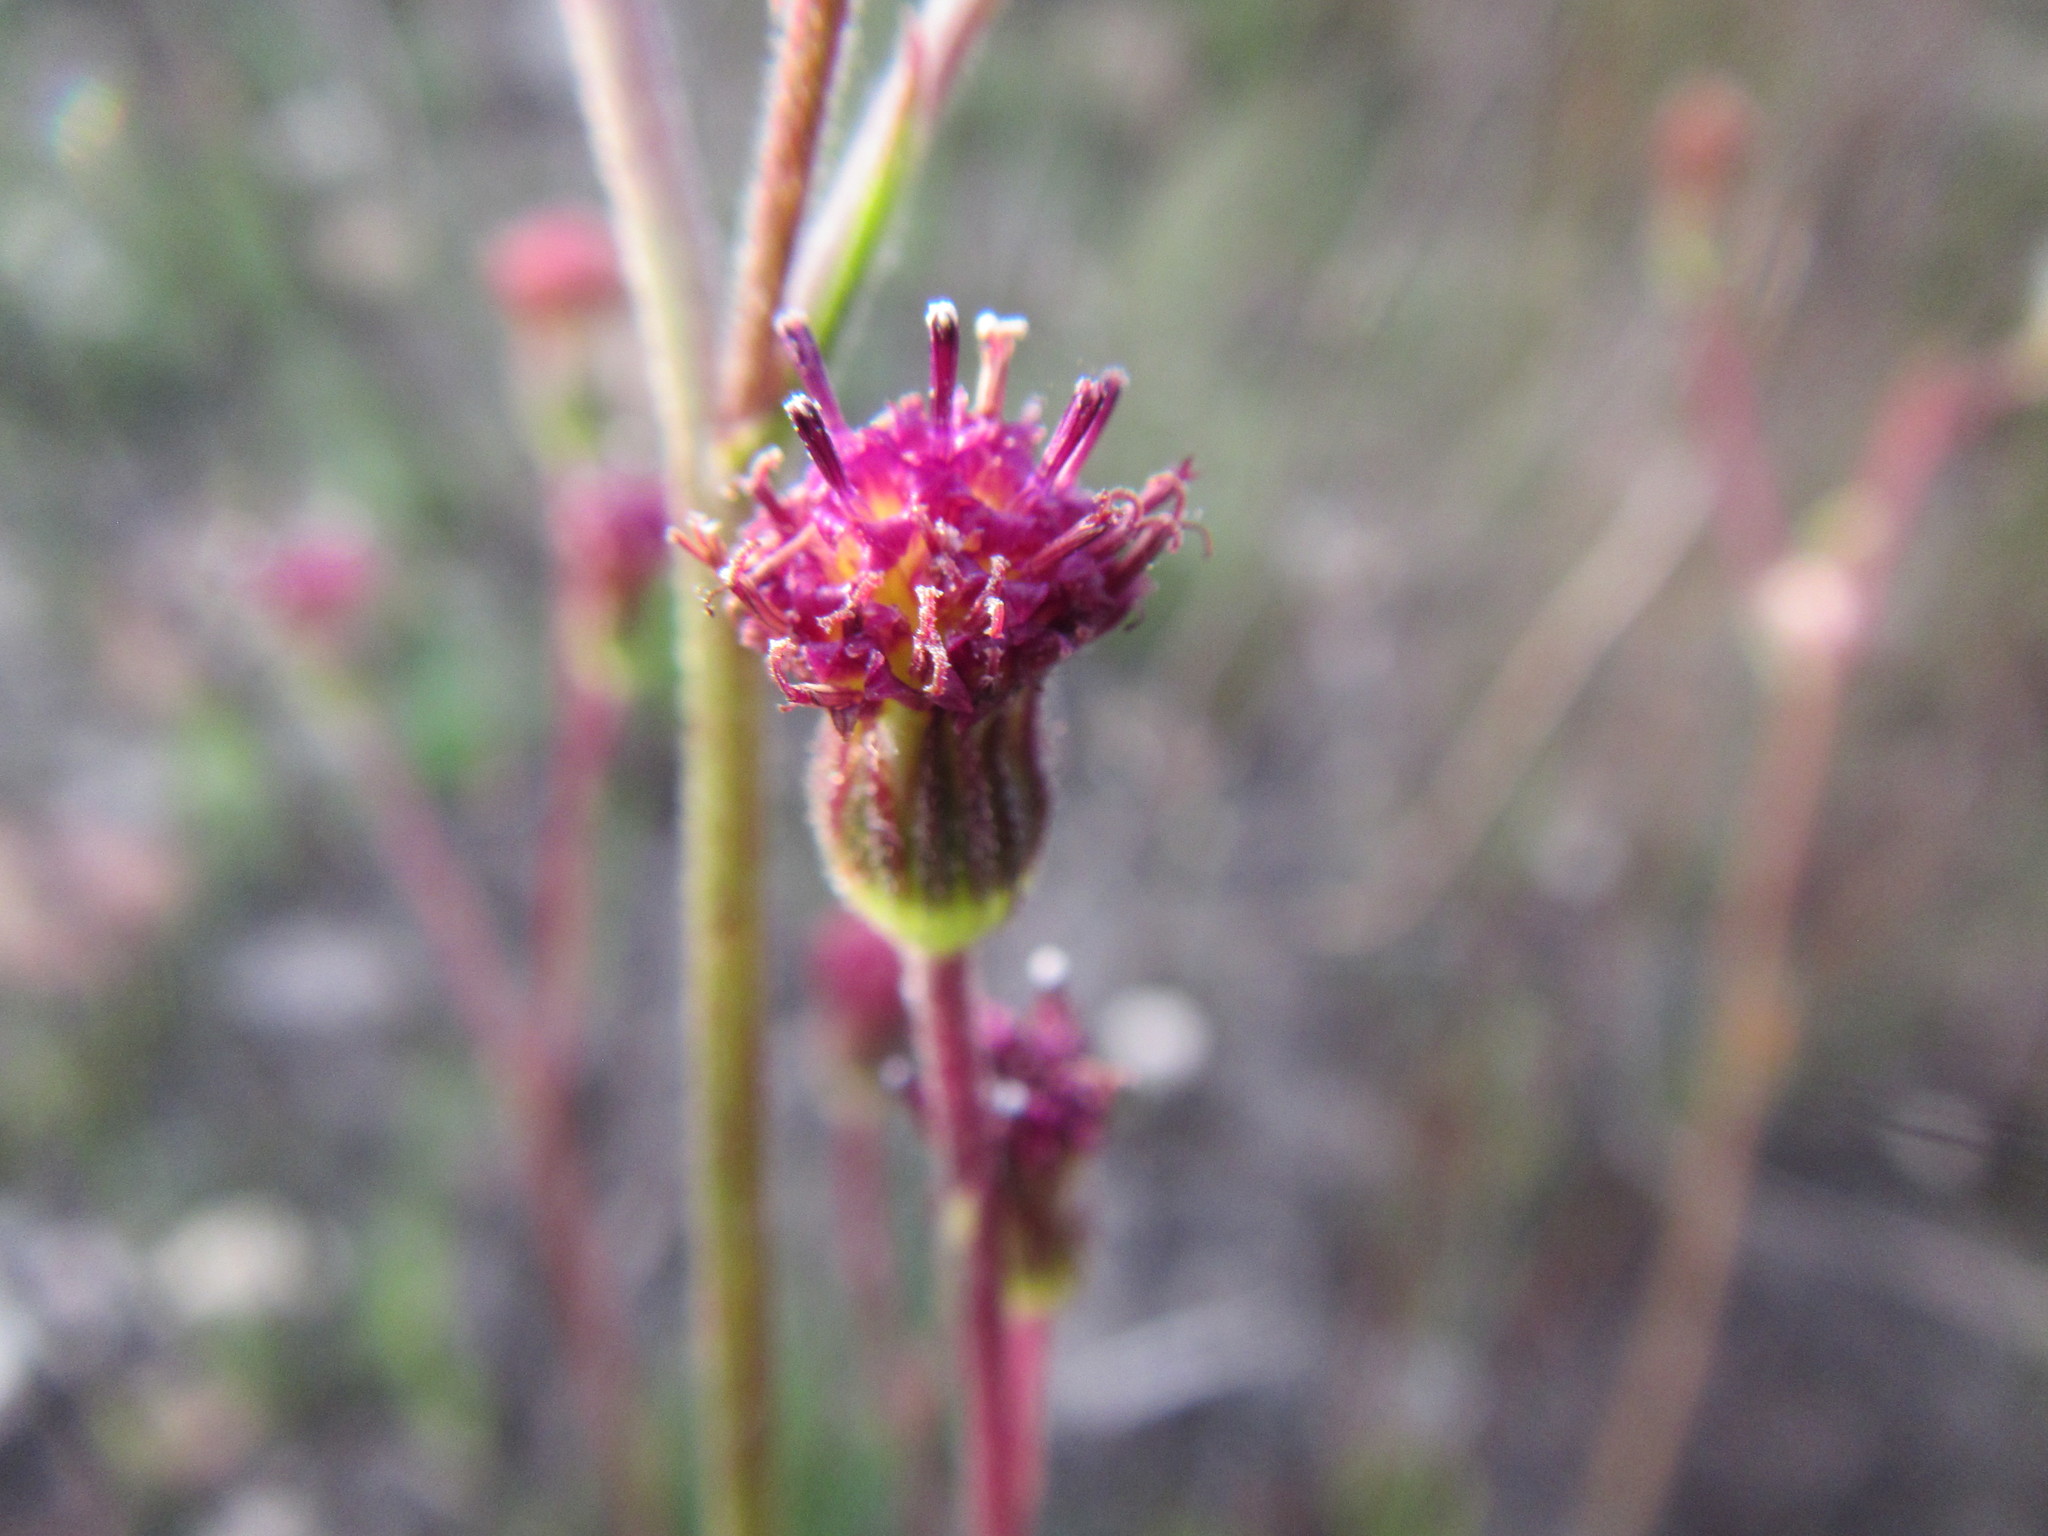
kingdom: Plantae
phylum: Tracheophyta
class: Magnoliopsida
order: Asterales
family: Asteraceae
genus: Senecio
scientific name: Senecio erubescens
